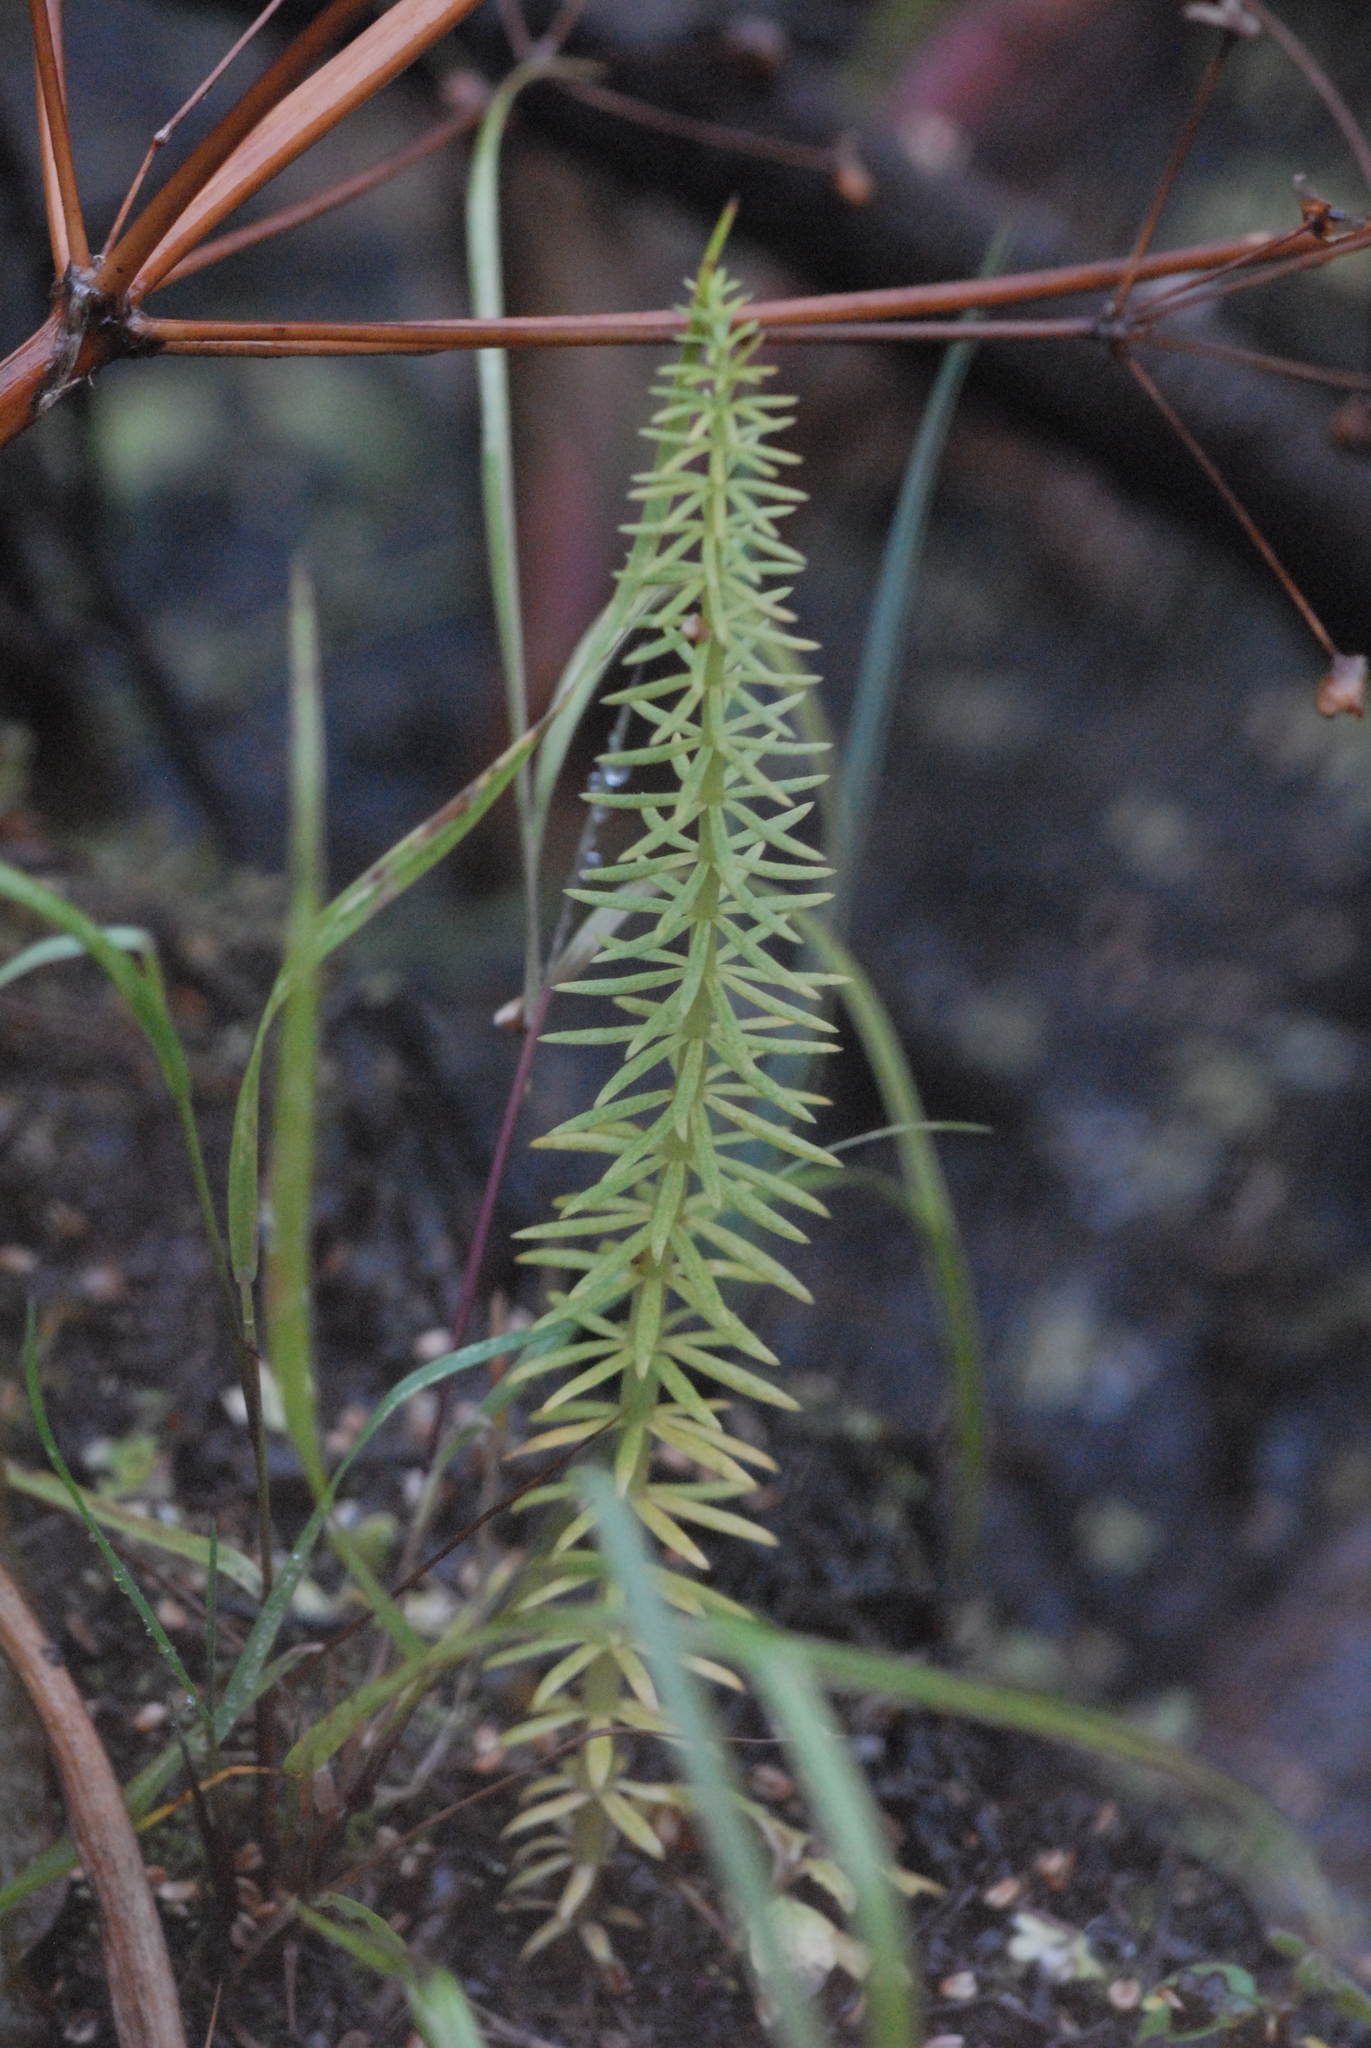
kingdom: Plantae
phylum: Tracheophyta
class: Magnoliopsida
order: Lamiales
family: Plantaginaceae
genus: Hippuris
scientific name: Hippuris vulgaris
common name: Mare's-tail
